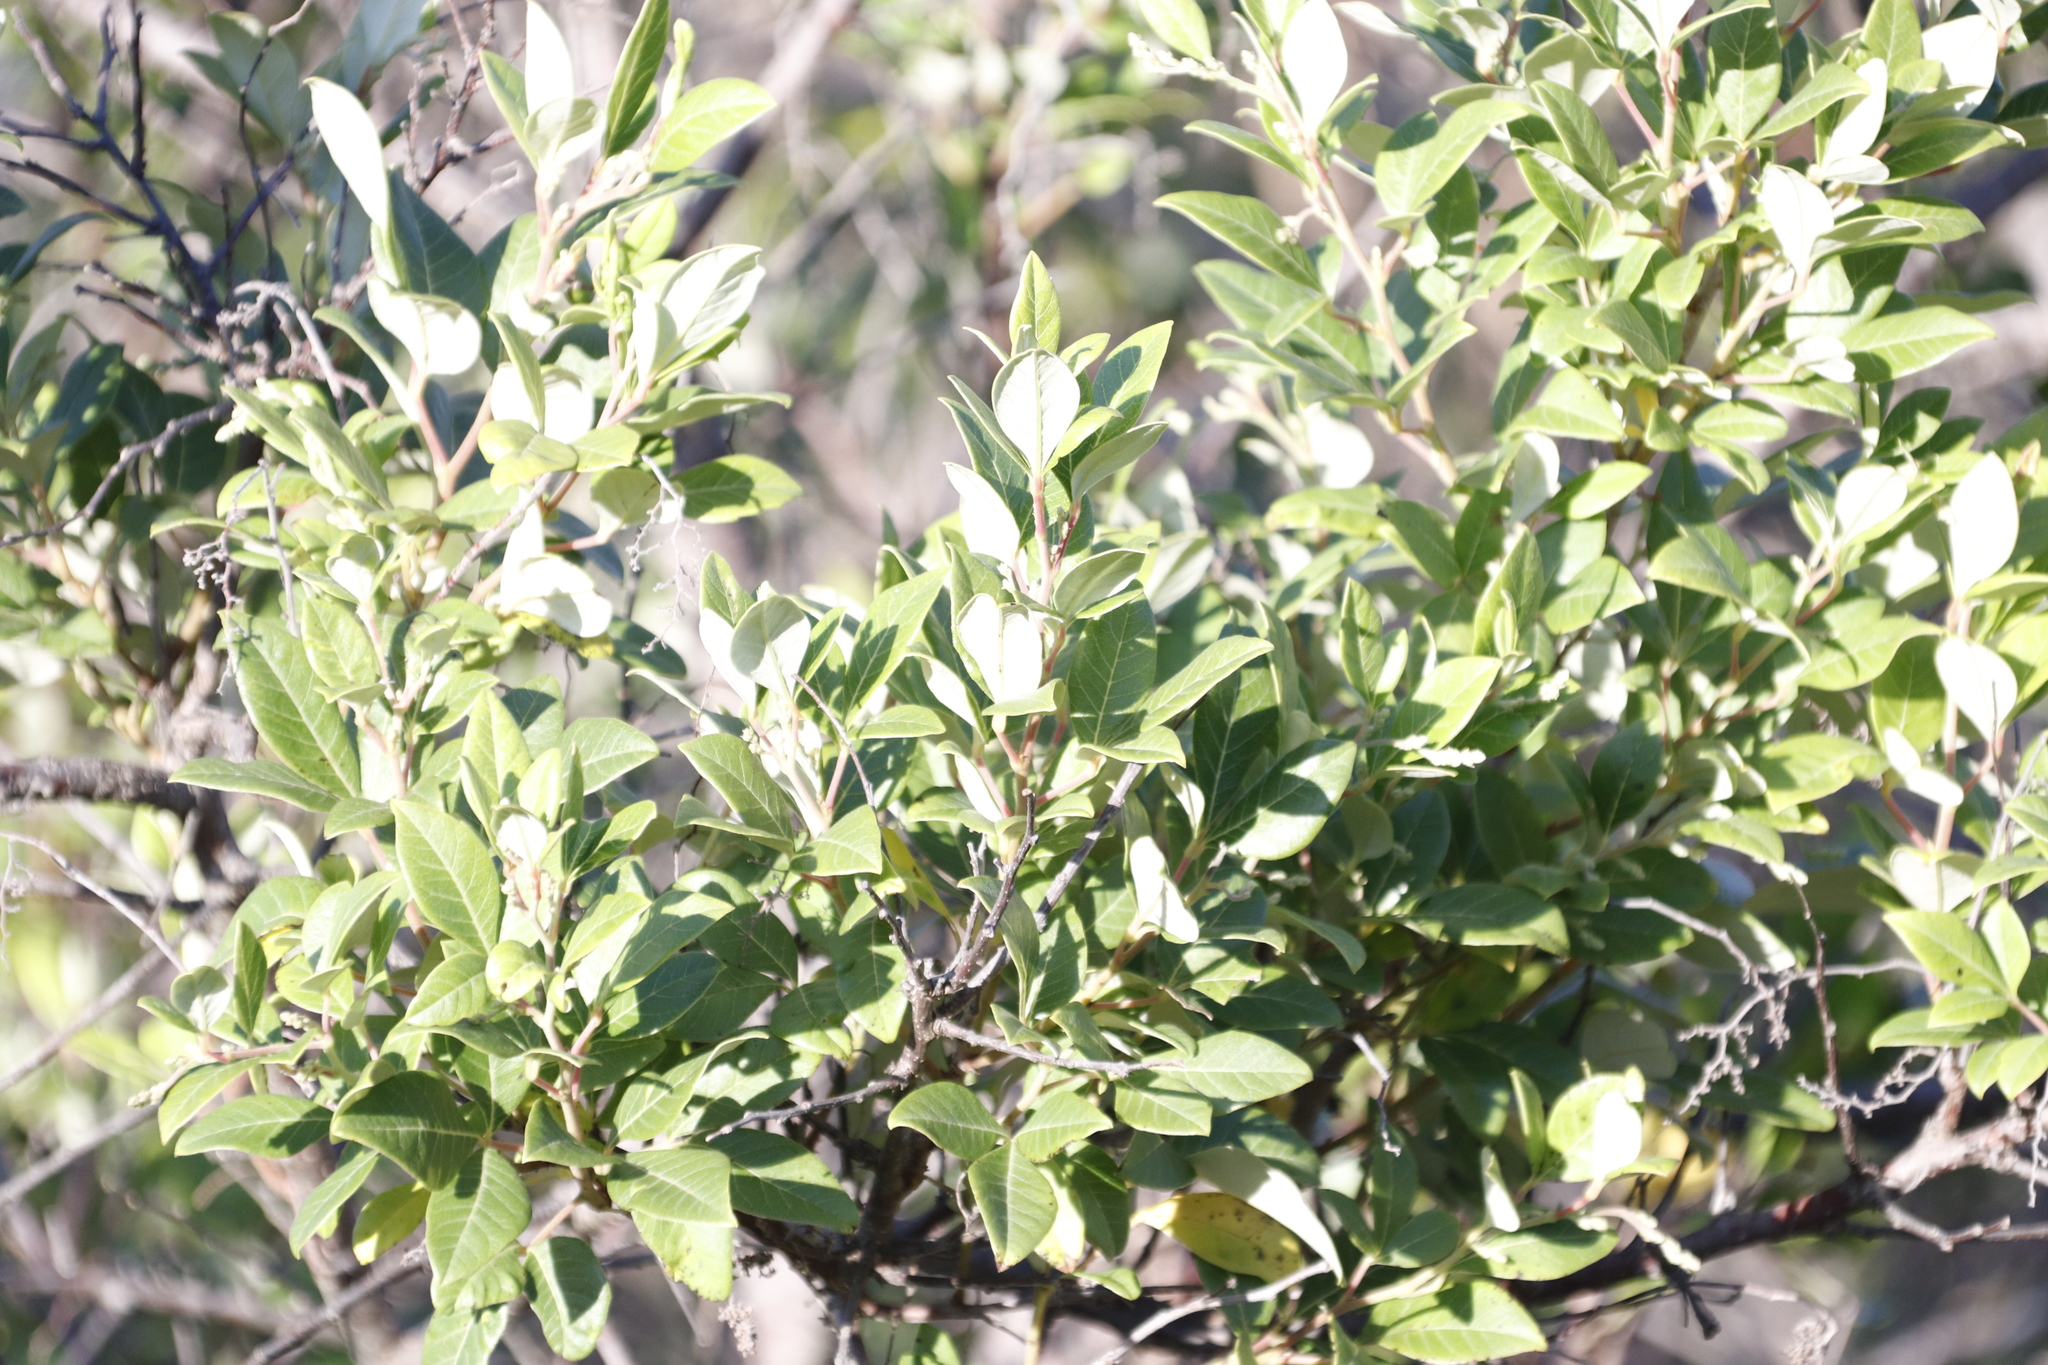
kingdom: Plantae
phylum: Tracheophyta
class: Magnoliopsida
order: Sapindales
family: Anacardiaceae
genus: Searsia
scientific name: Searsia tomentosa
